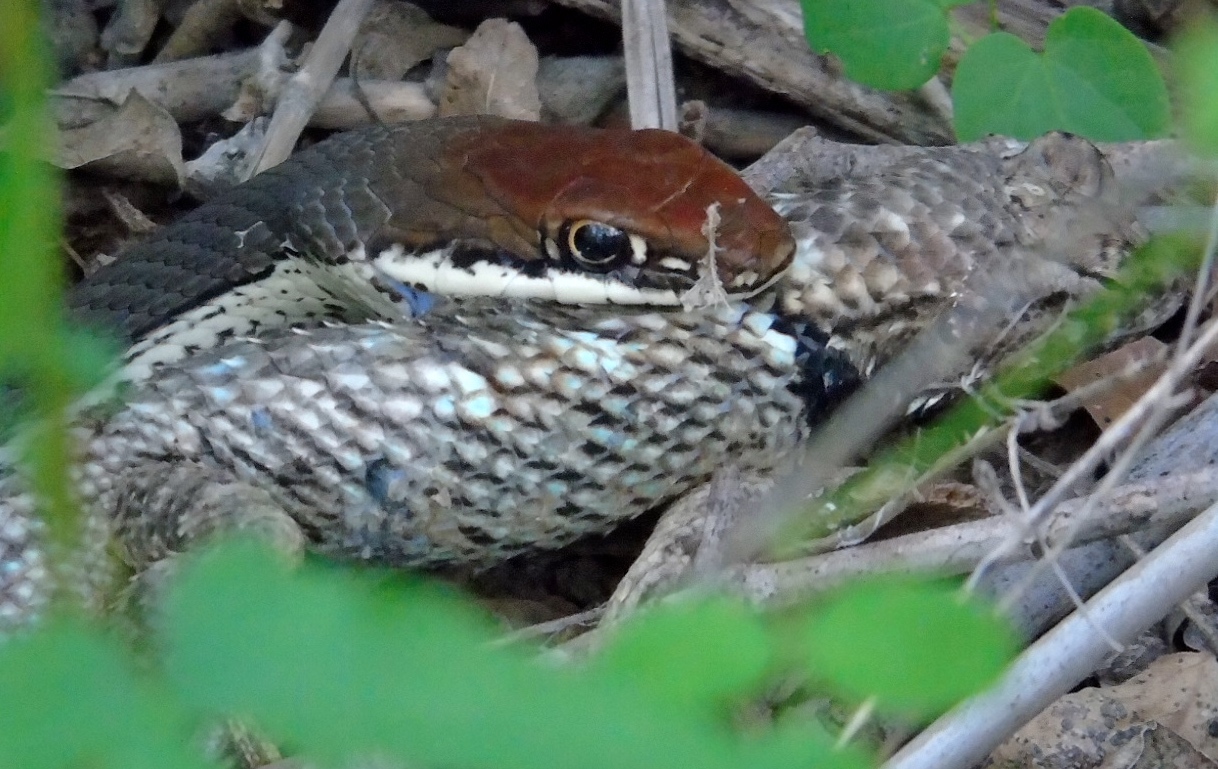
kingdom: Animalia
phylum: Chordata
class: Squamata
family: Phrynosomatidae
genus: Sceloporus
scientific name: Sceloporus clarkii
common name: Clark's spiny lizard
